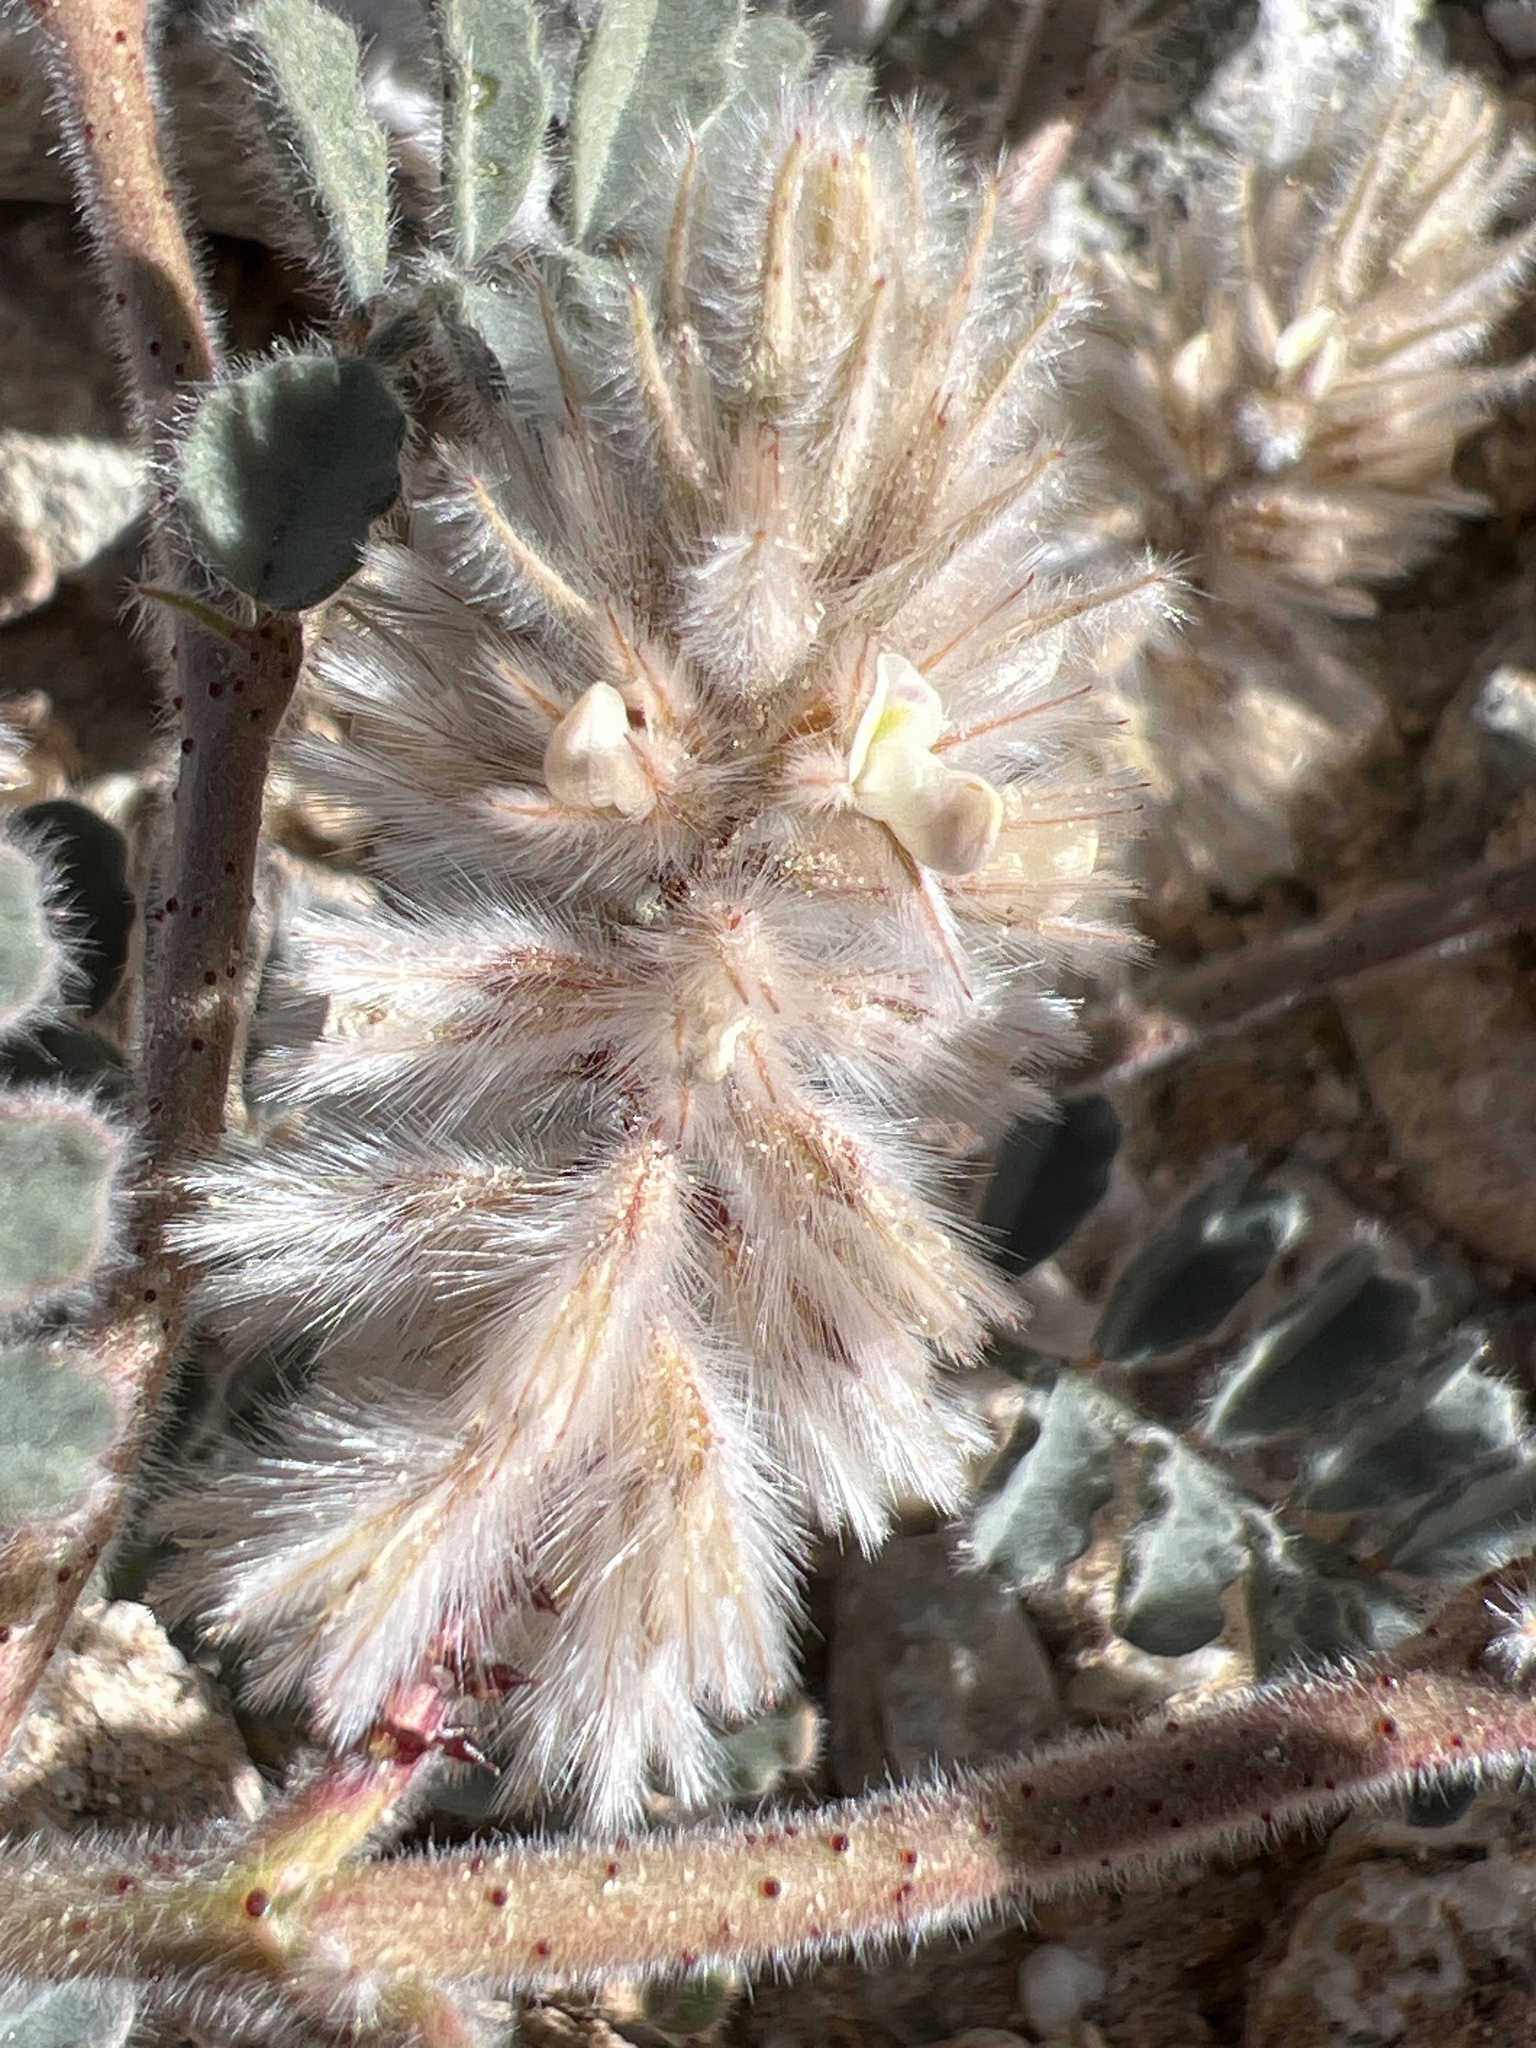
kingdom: Plantae
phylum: Tracheophyta
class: Magnoliopsida
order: Fabales
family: Fabaceae
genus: Dalea
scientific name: Dalea mollissima
